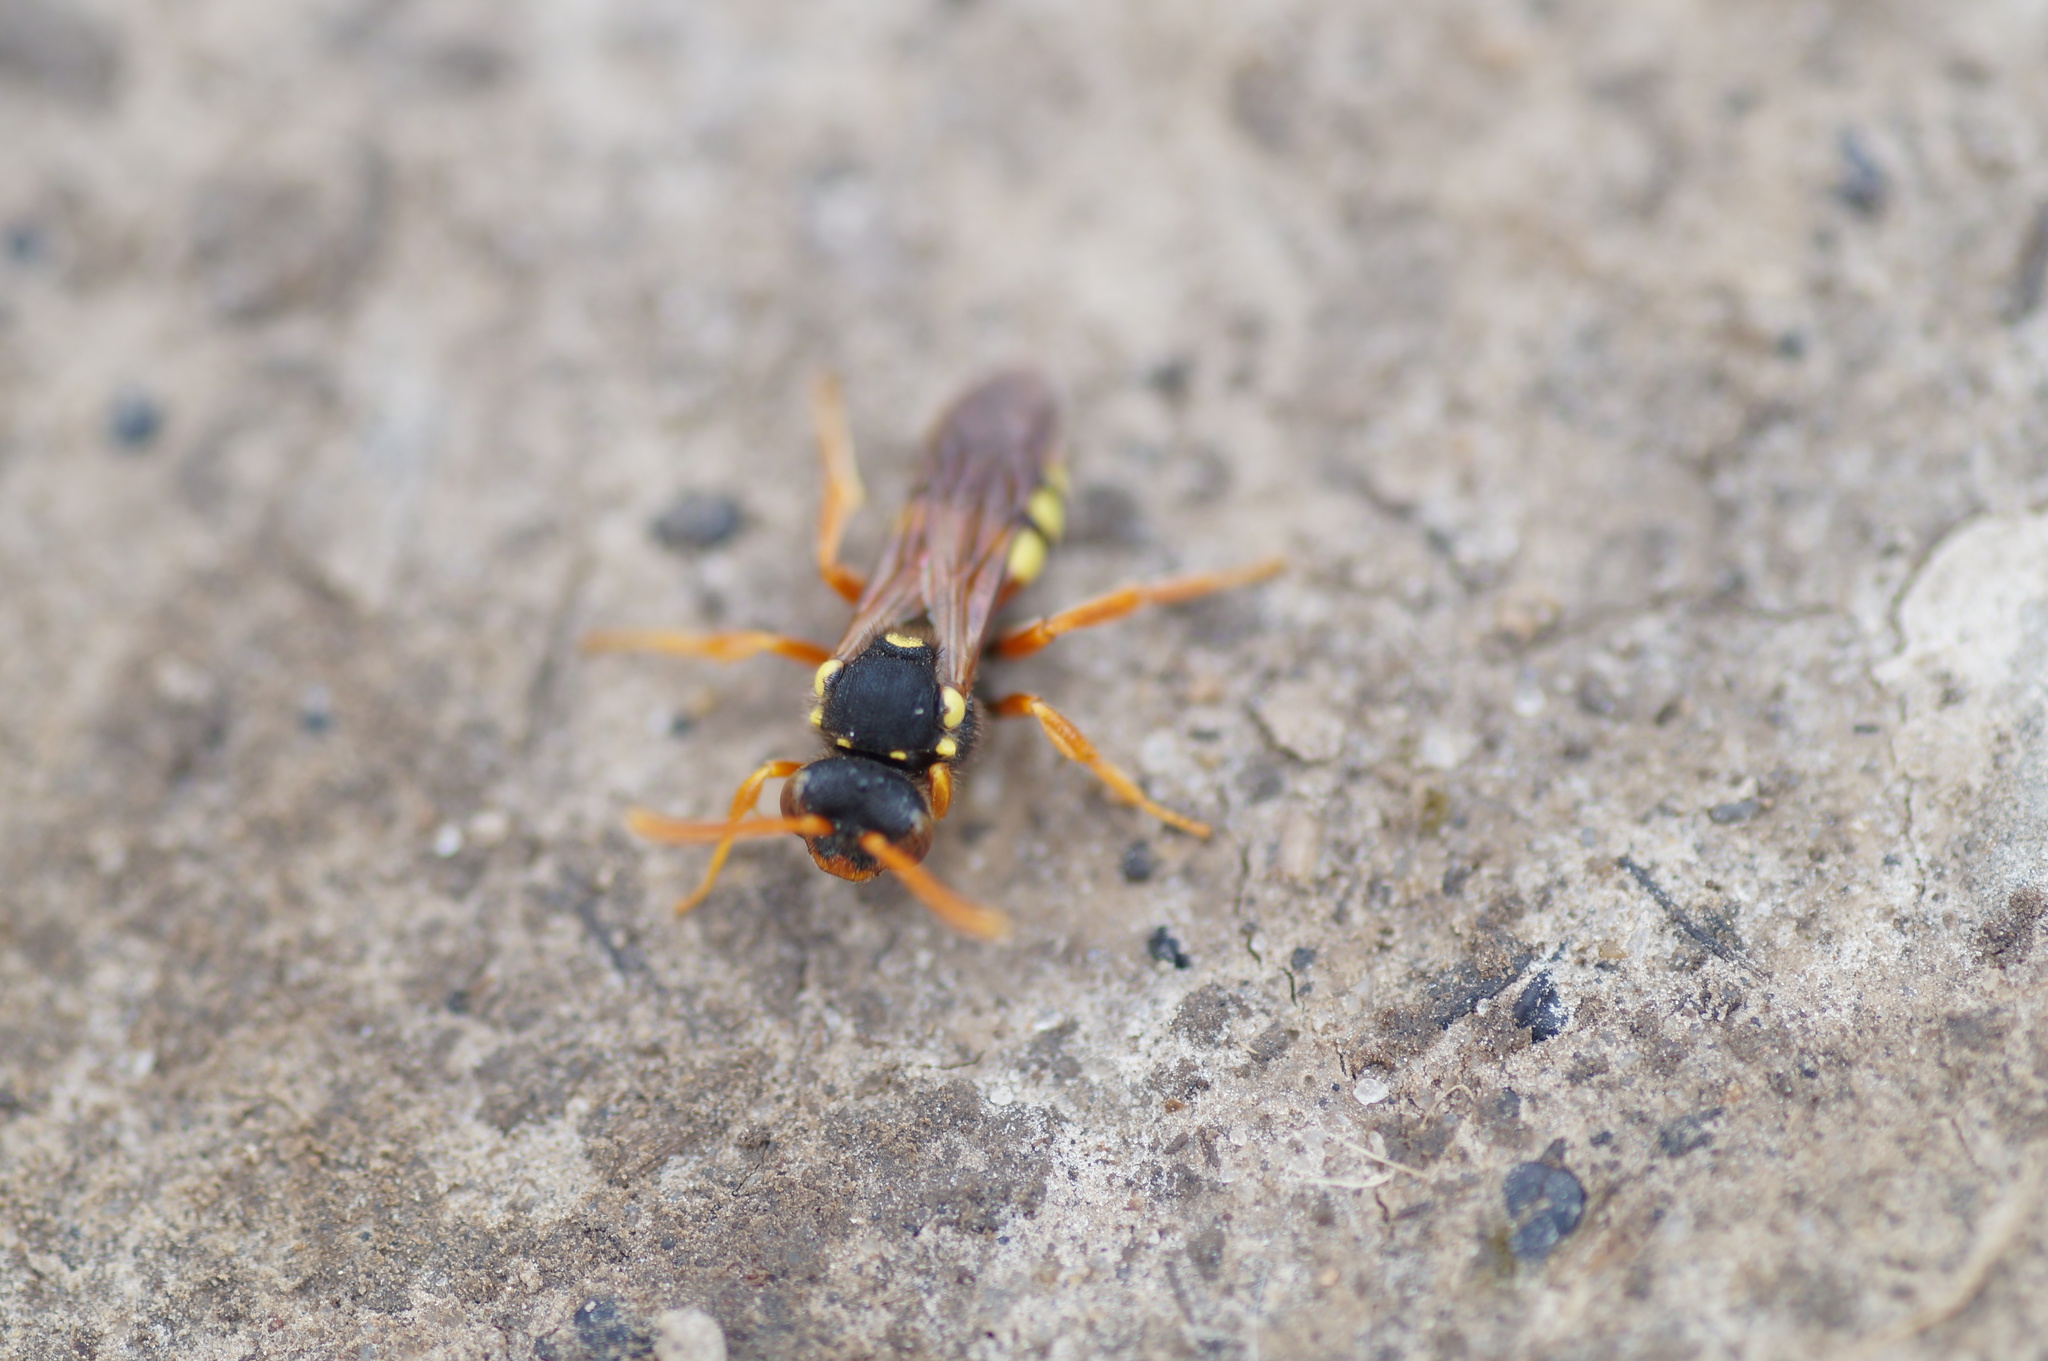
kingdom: Animalia
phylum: Arthropoda
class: Insecta
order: Hymenoptera
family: Apidae
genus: Nomada
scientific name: Nomada
